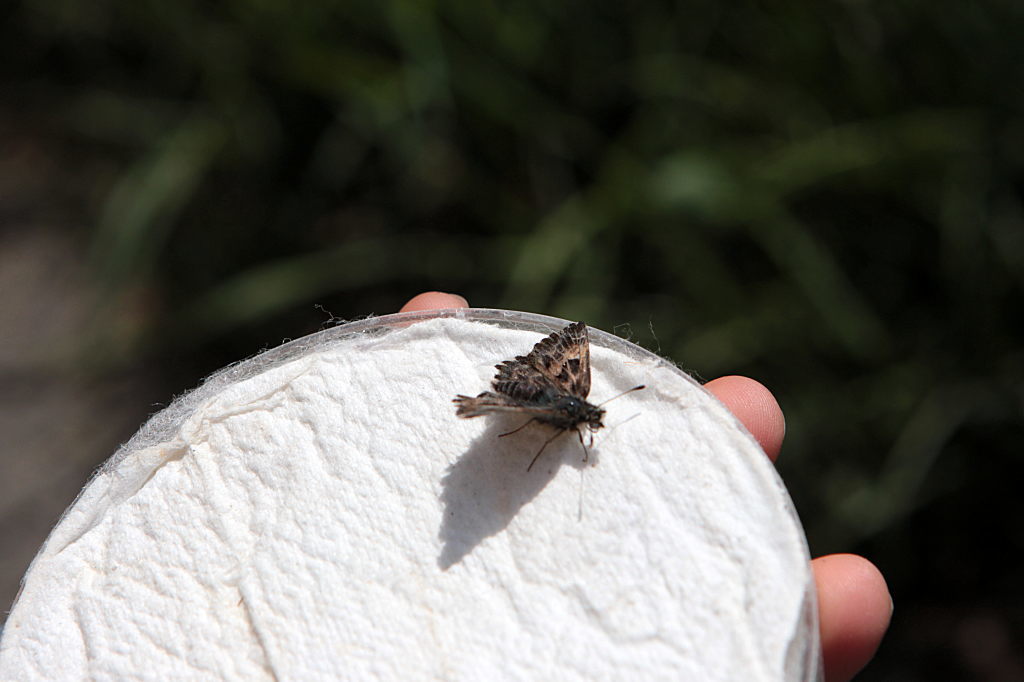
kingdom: Animalia
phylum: Arthropoda
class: Insecta
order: Lepidoptera
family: Hesperiidae
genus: Carcharodus
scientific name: Carcharodus alceae
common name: Mallow skipper
